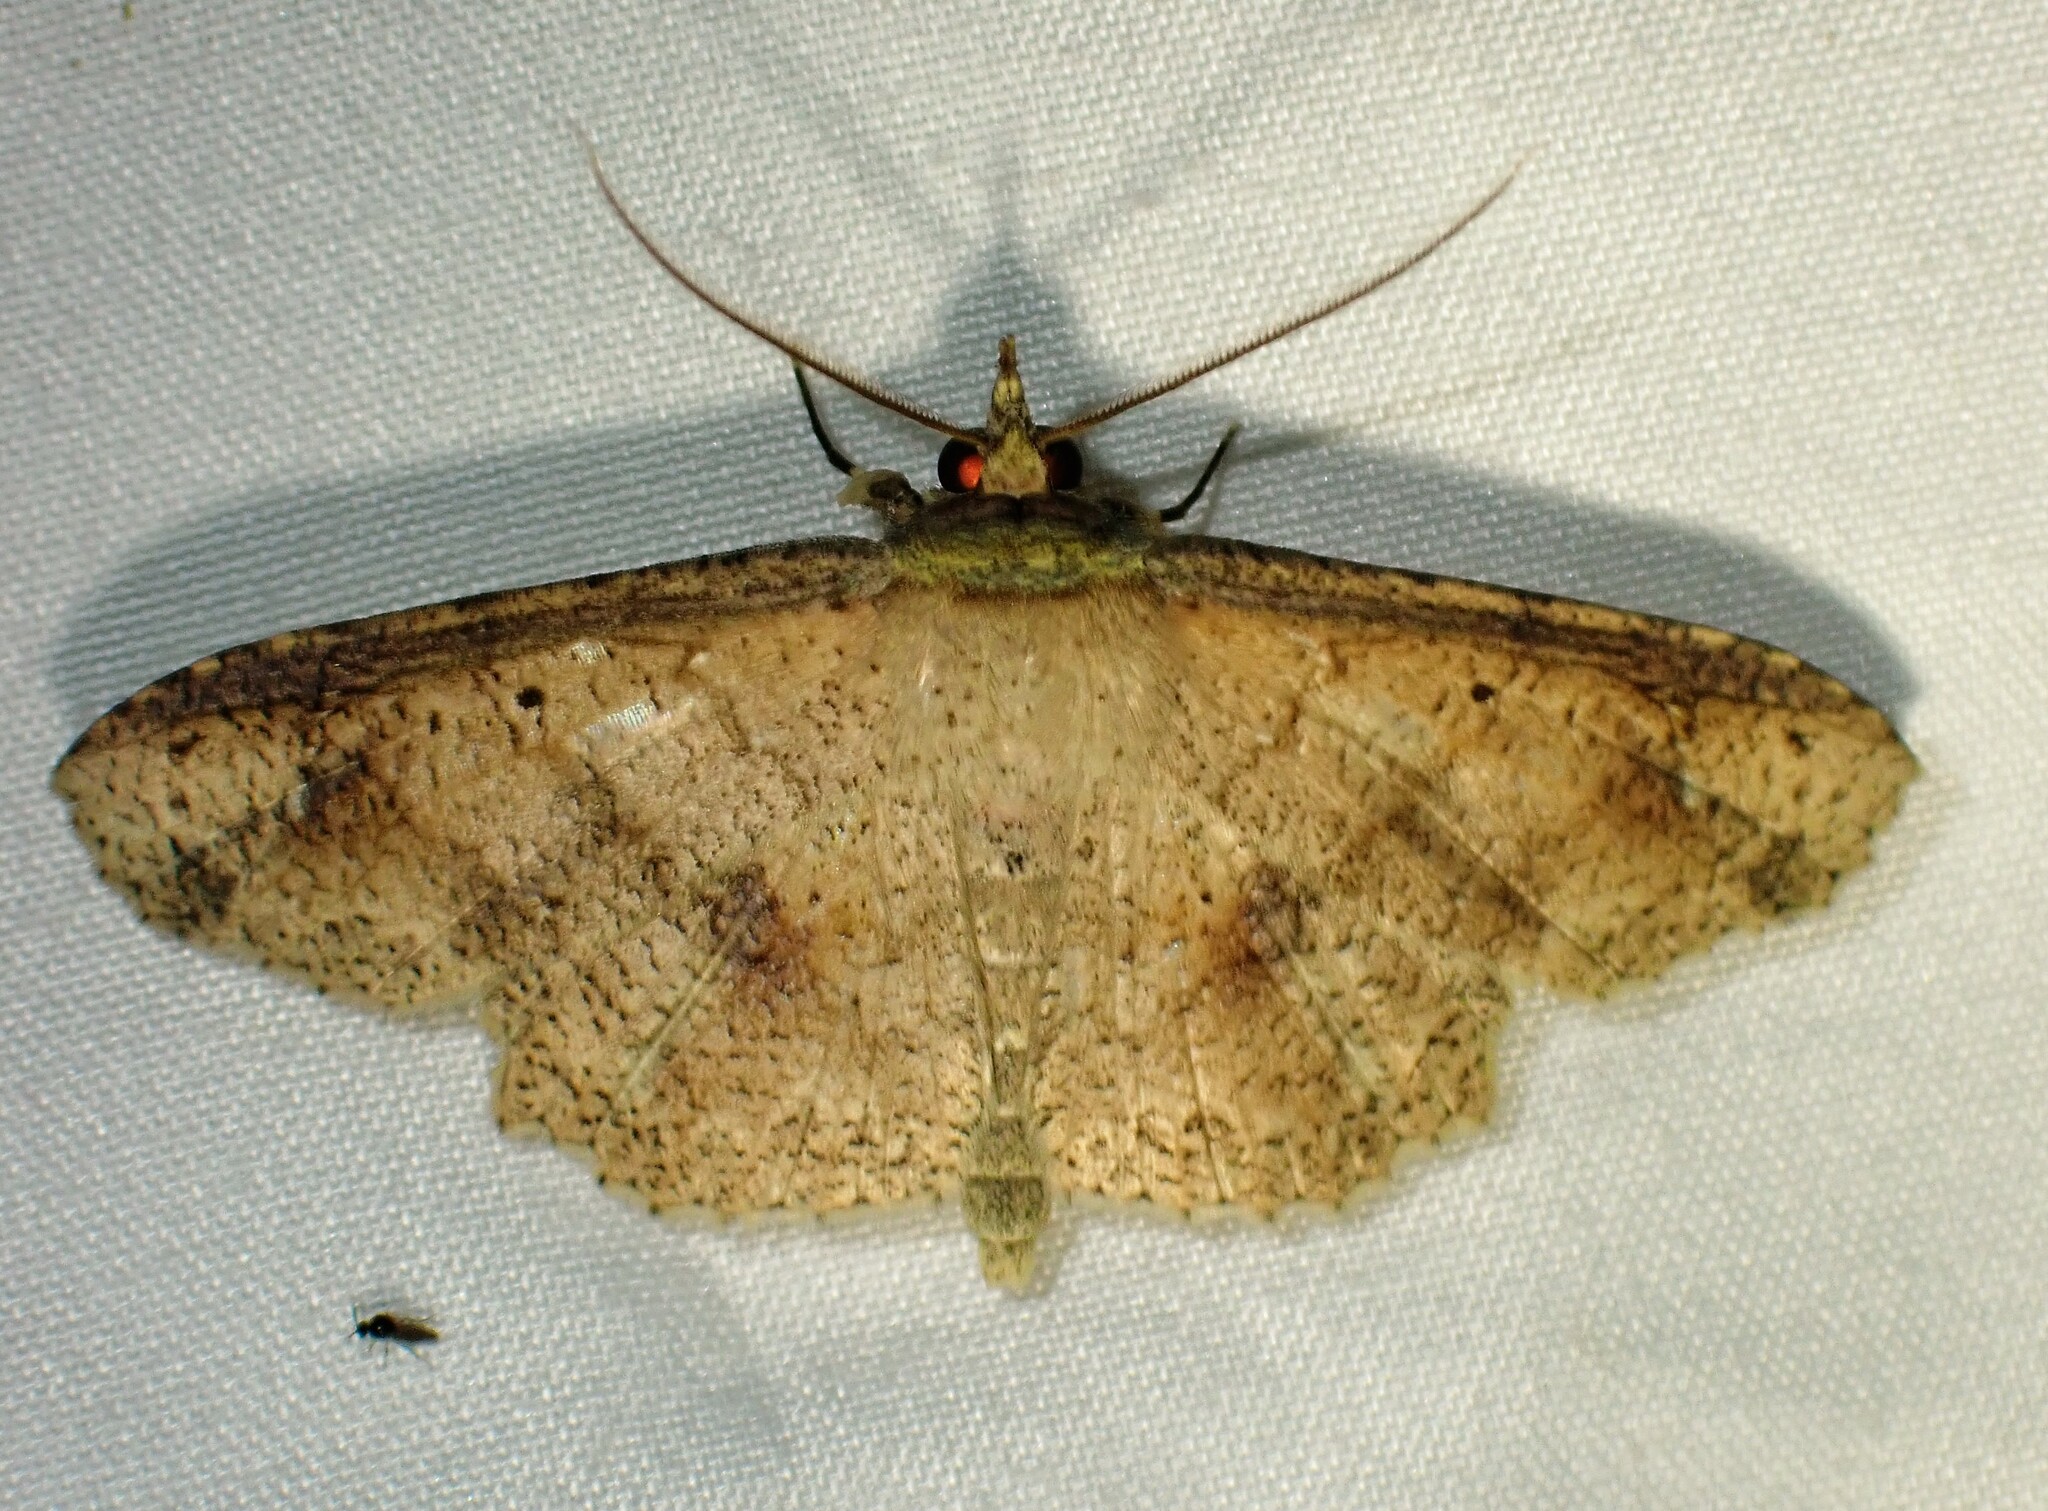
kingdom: Animalia
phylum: Arthropoda
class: Insecta
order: Lepidoptera
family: Erebidae
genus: Erebostrota
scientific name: Erebostrota stenelea
